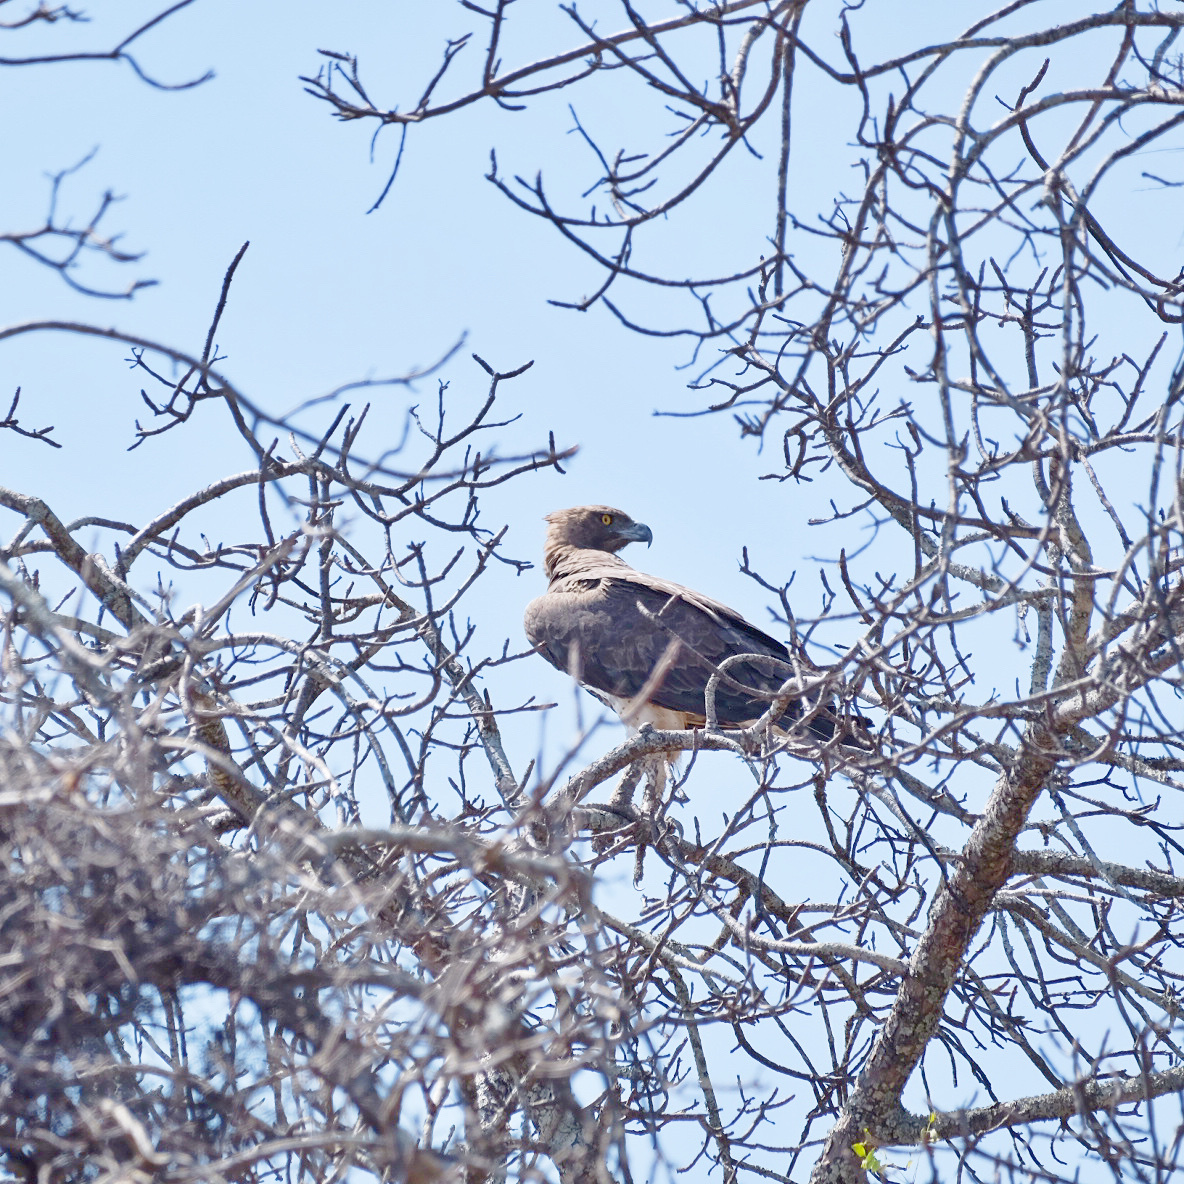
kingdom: Animalia
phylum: Chordata
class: Aves
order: Accipitriformes
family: Accipitridae
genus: Polemaetus
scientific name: Polemaetus bellicosus
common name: Martial eagle
